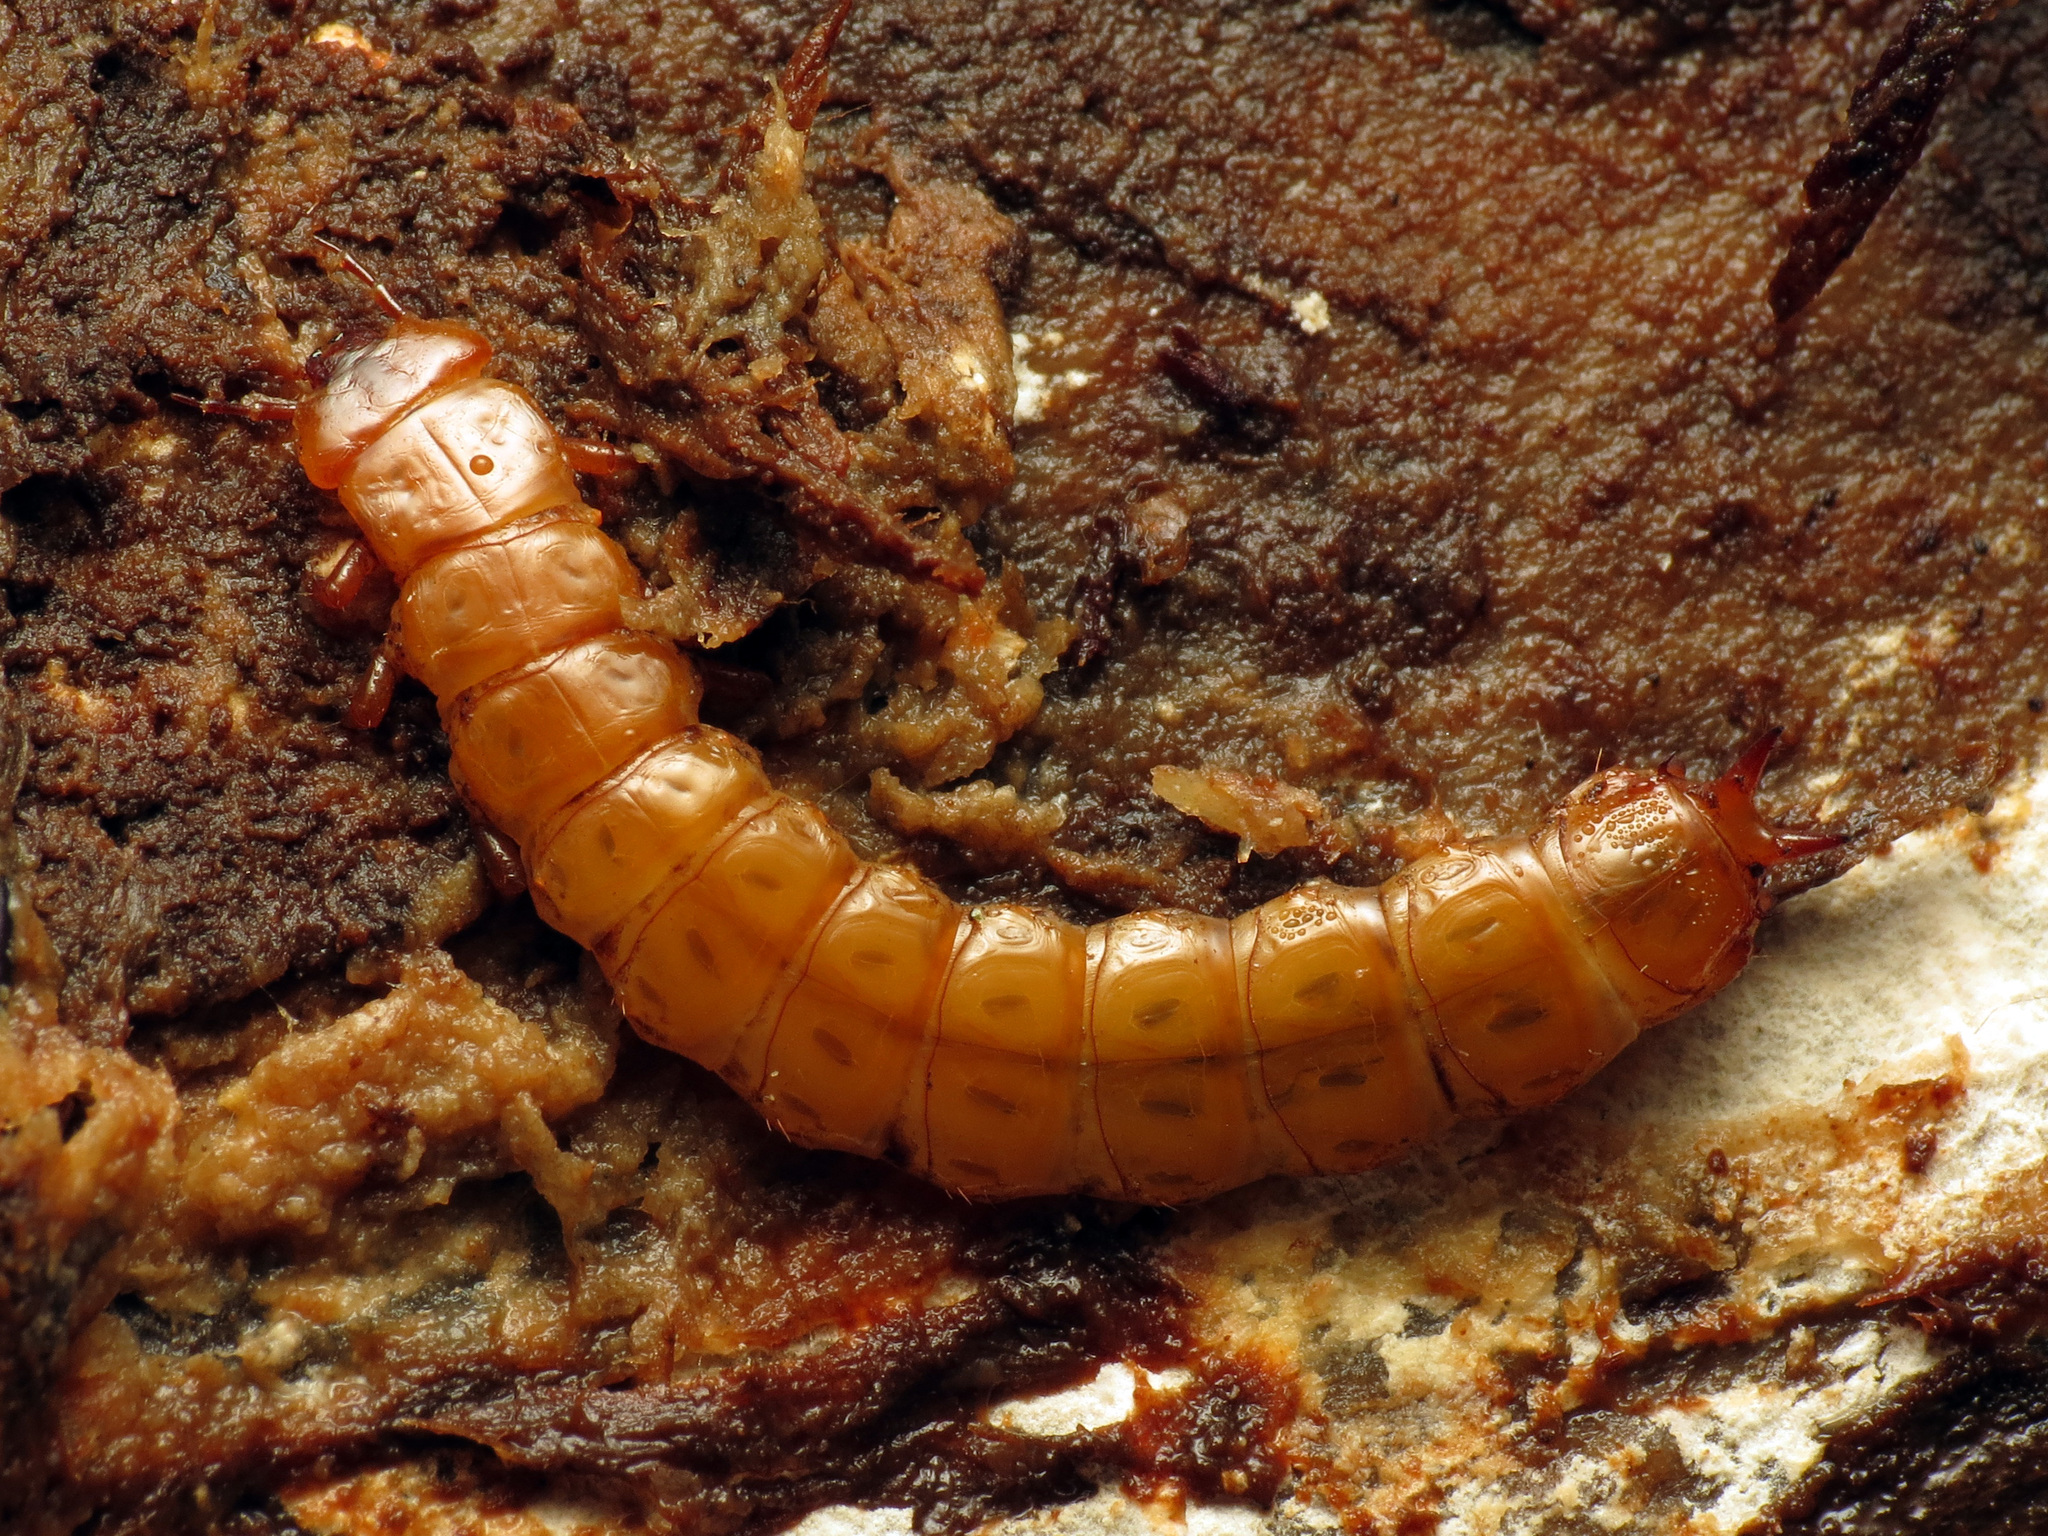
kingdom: Animalia
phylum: Arthropoda
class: Insecta
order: Coleoptera
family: Cucujidae
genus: Cucujus
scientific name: Cucujus clavipes
